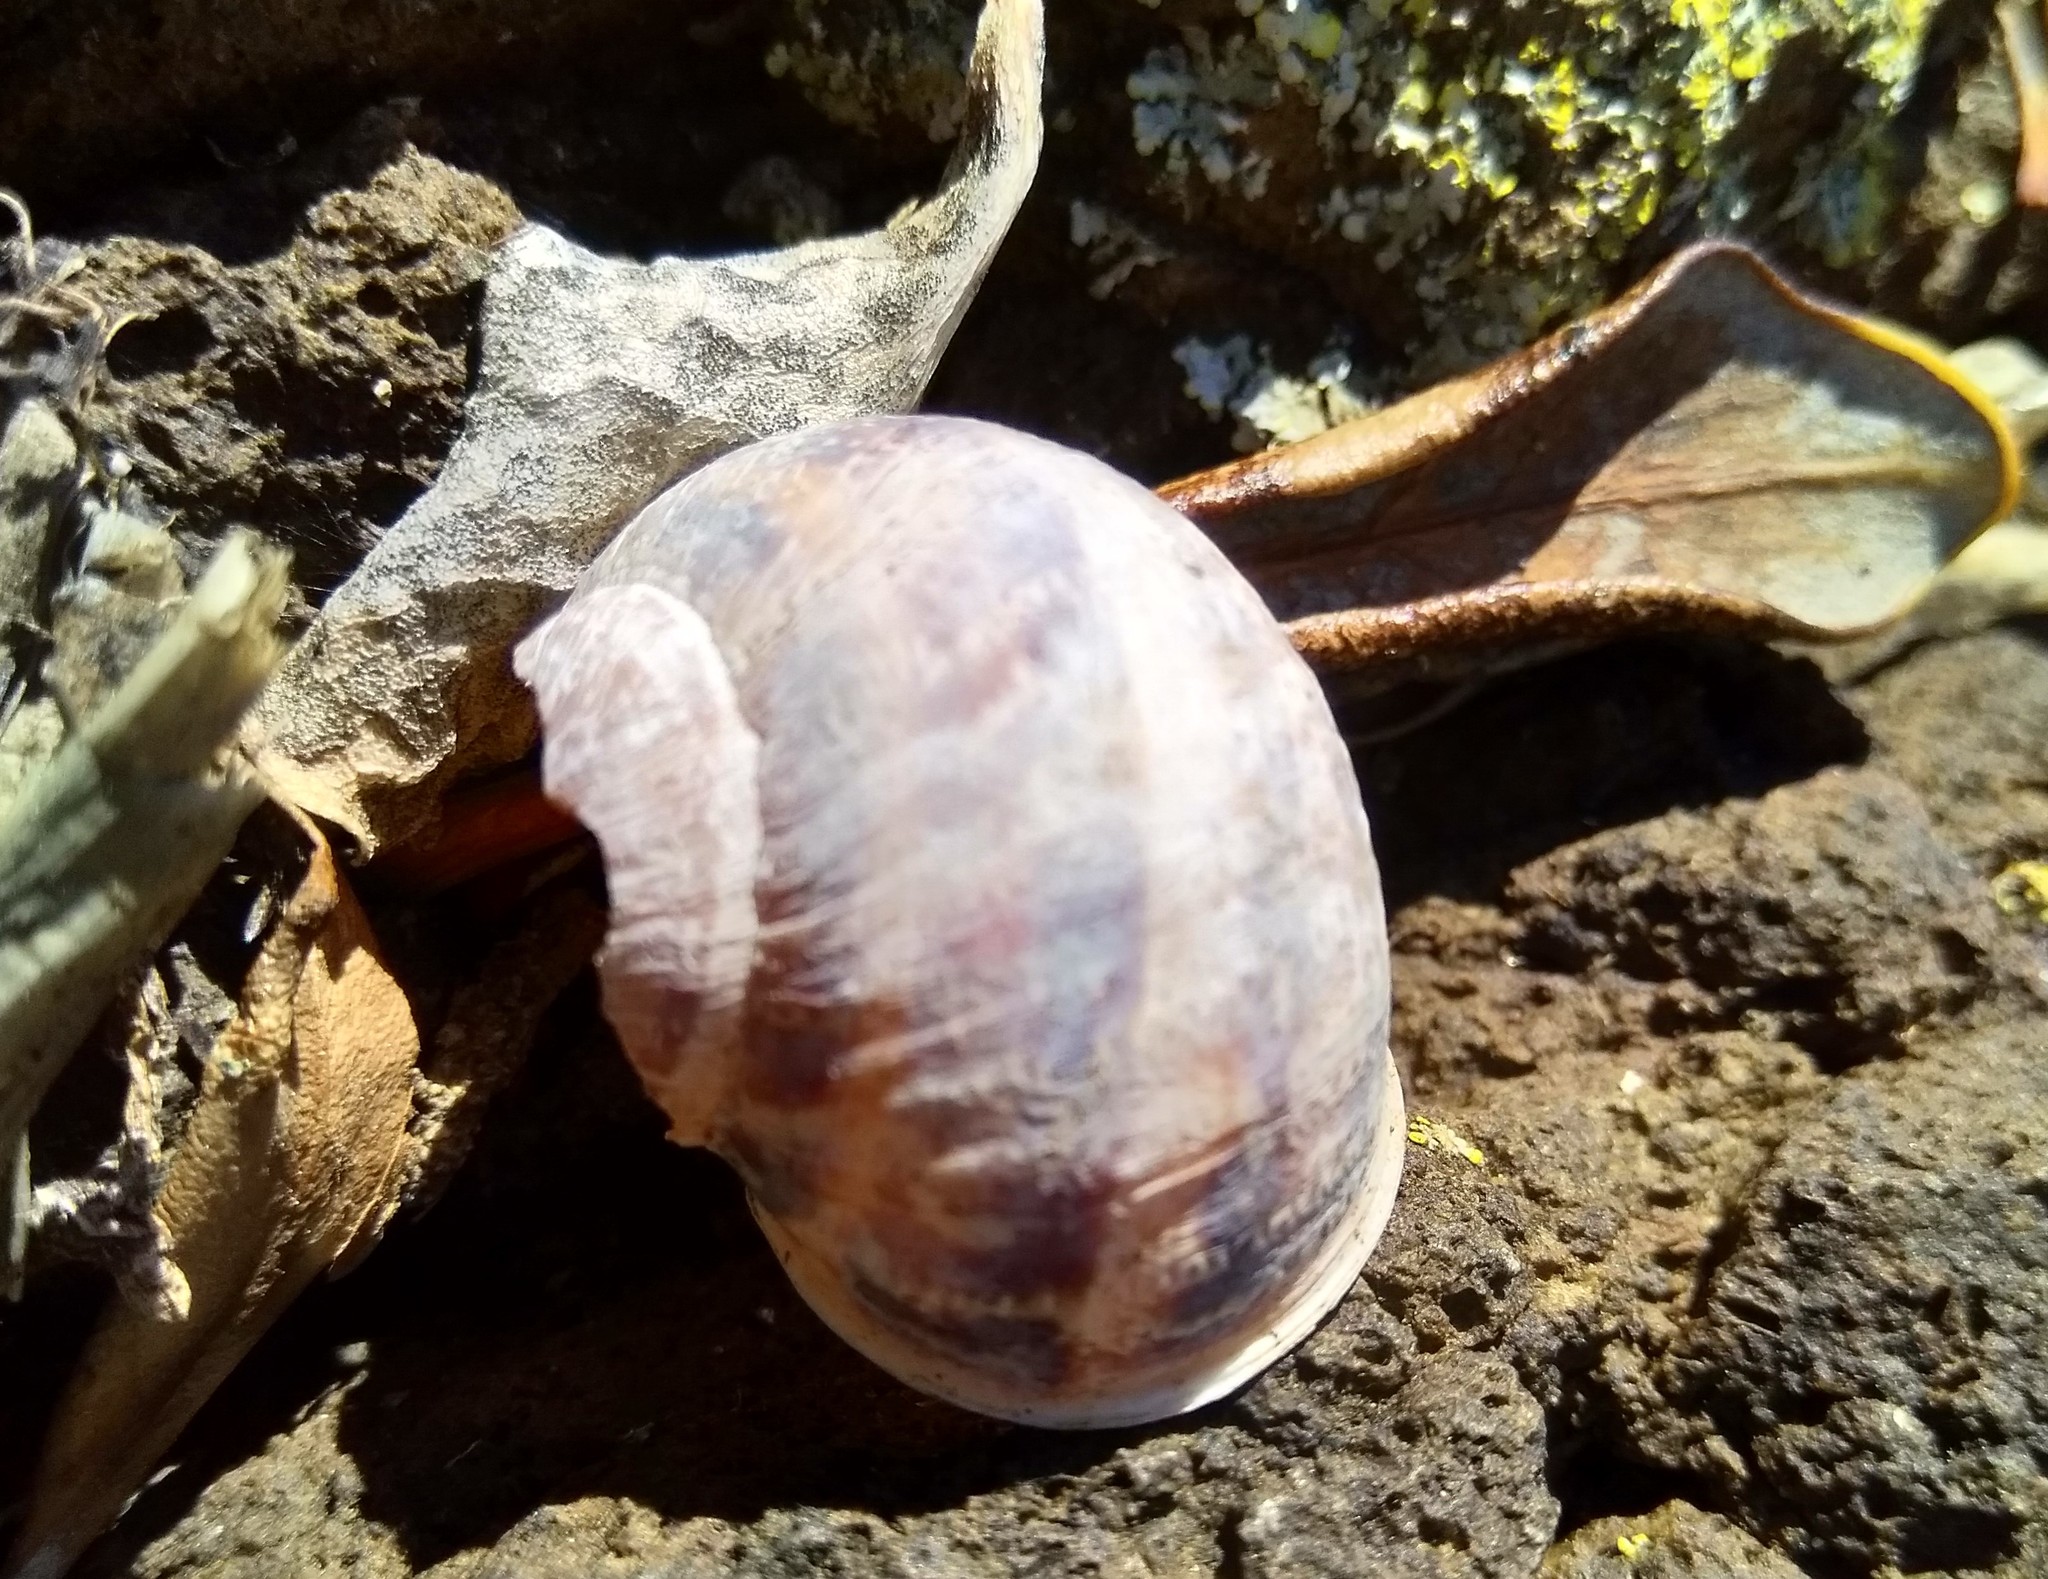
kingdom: Animalia
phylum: Mollusca
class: Gastropoda
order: Stylommatophora
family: Helicidae
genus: Cornu
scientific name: Cornu aspersum
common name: Brown garden snail
